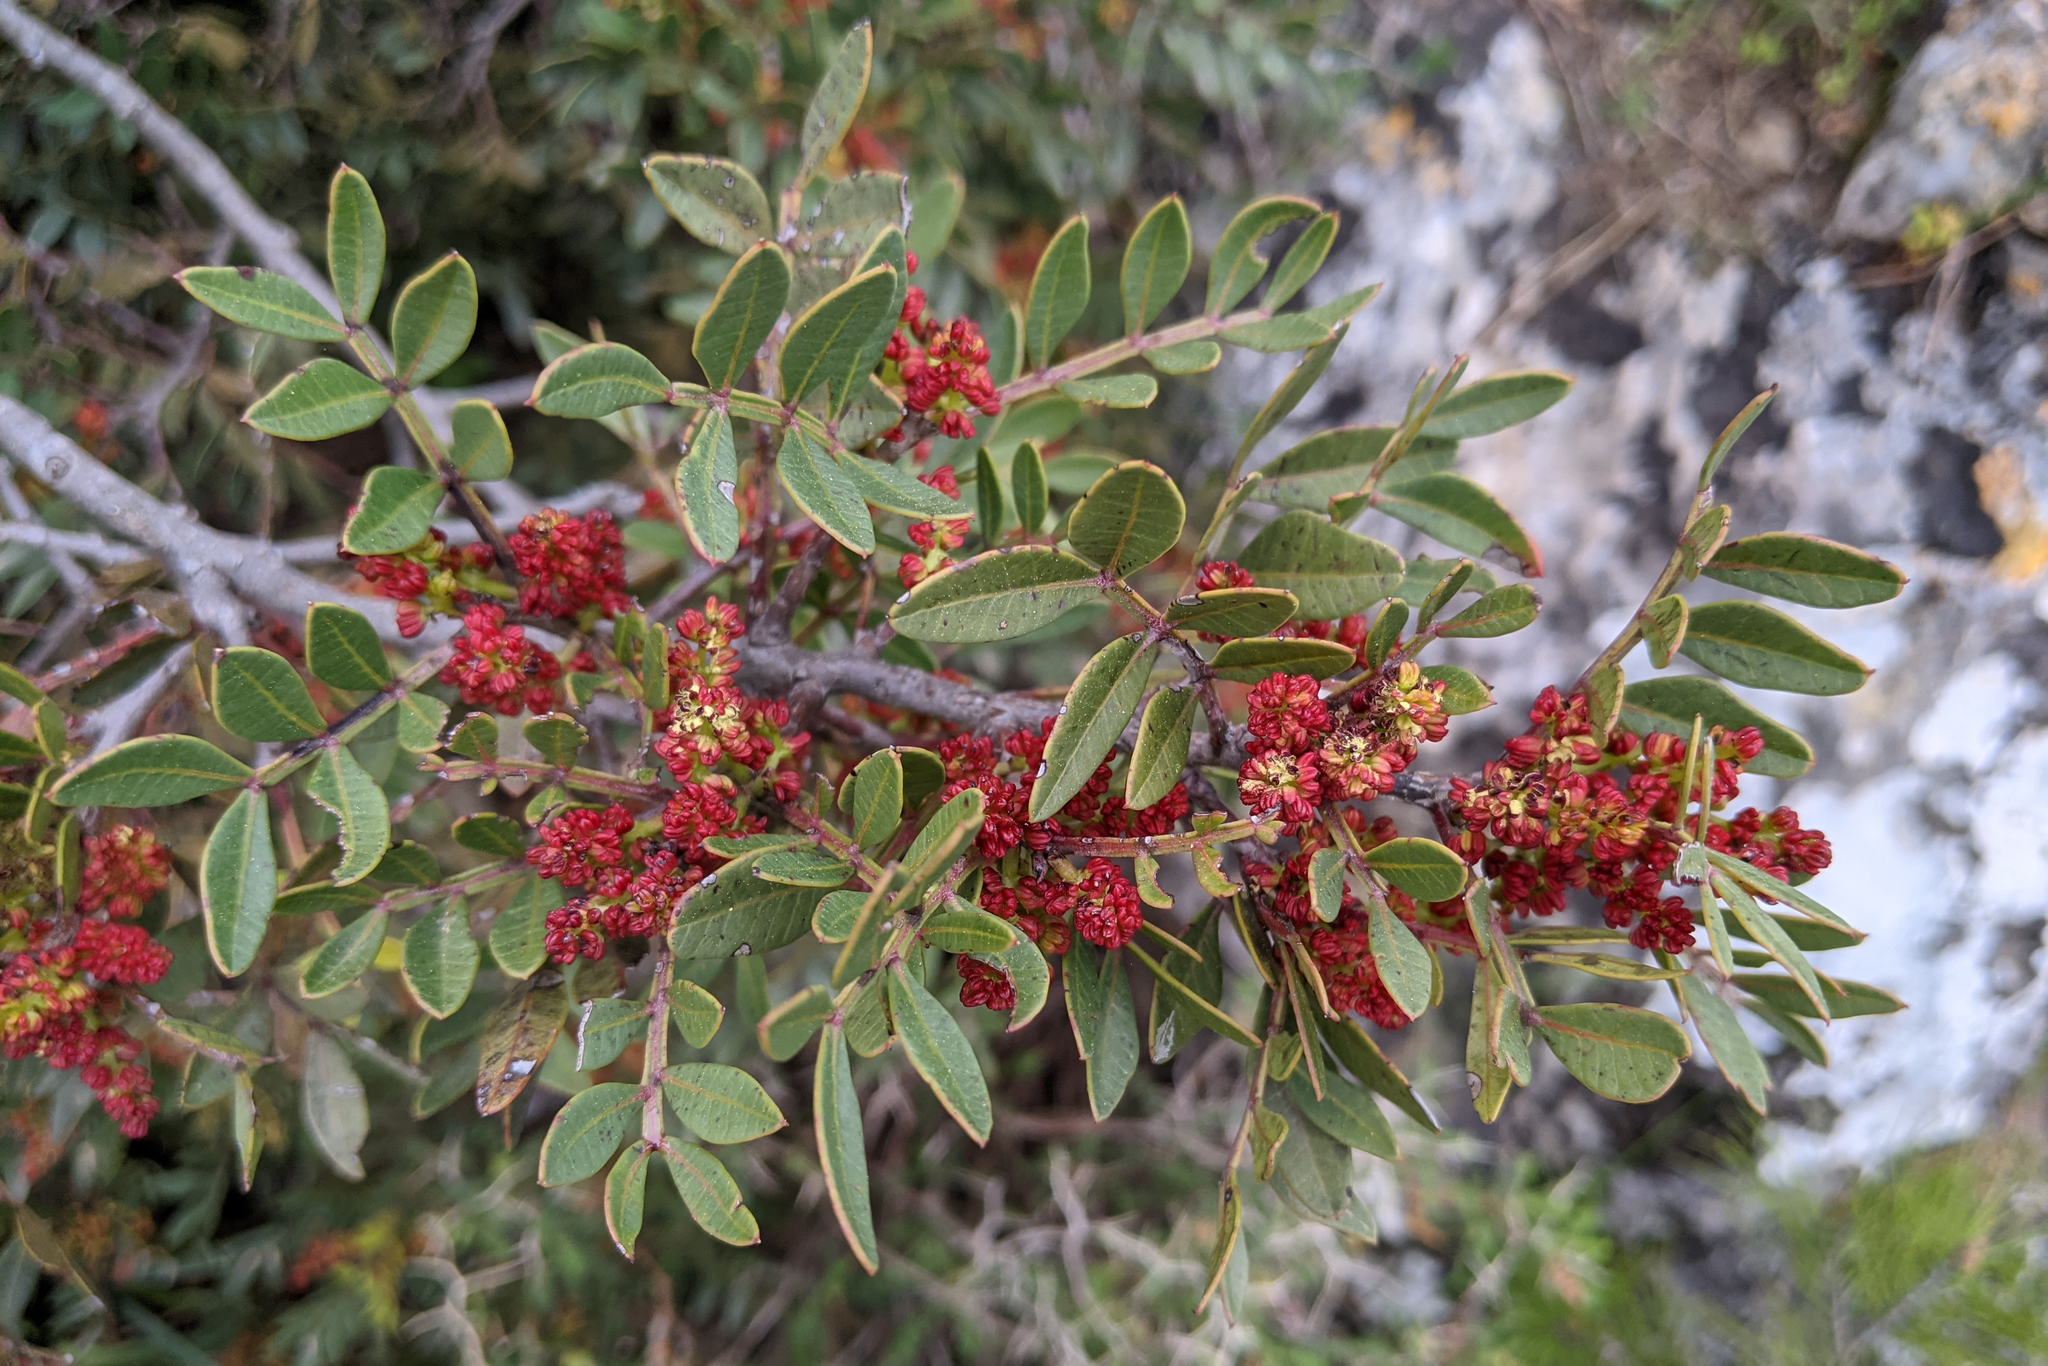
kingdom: Plantae
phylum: Tracheophyta
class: Magnoliopsida
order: Sapindales
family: Anacardiaceae
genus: Pistacia
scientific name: Pistacia lentiscus
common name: Lentisk
